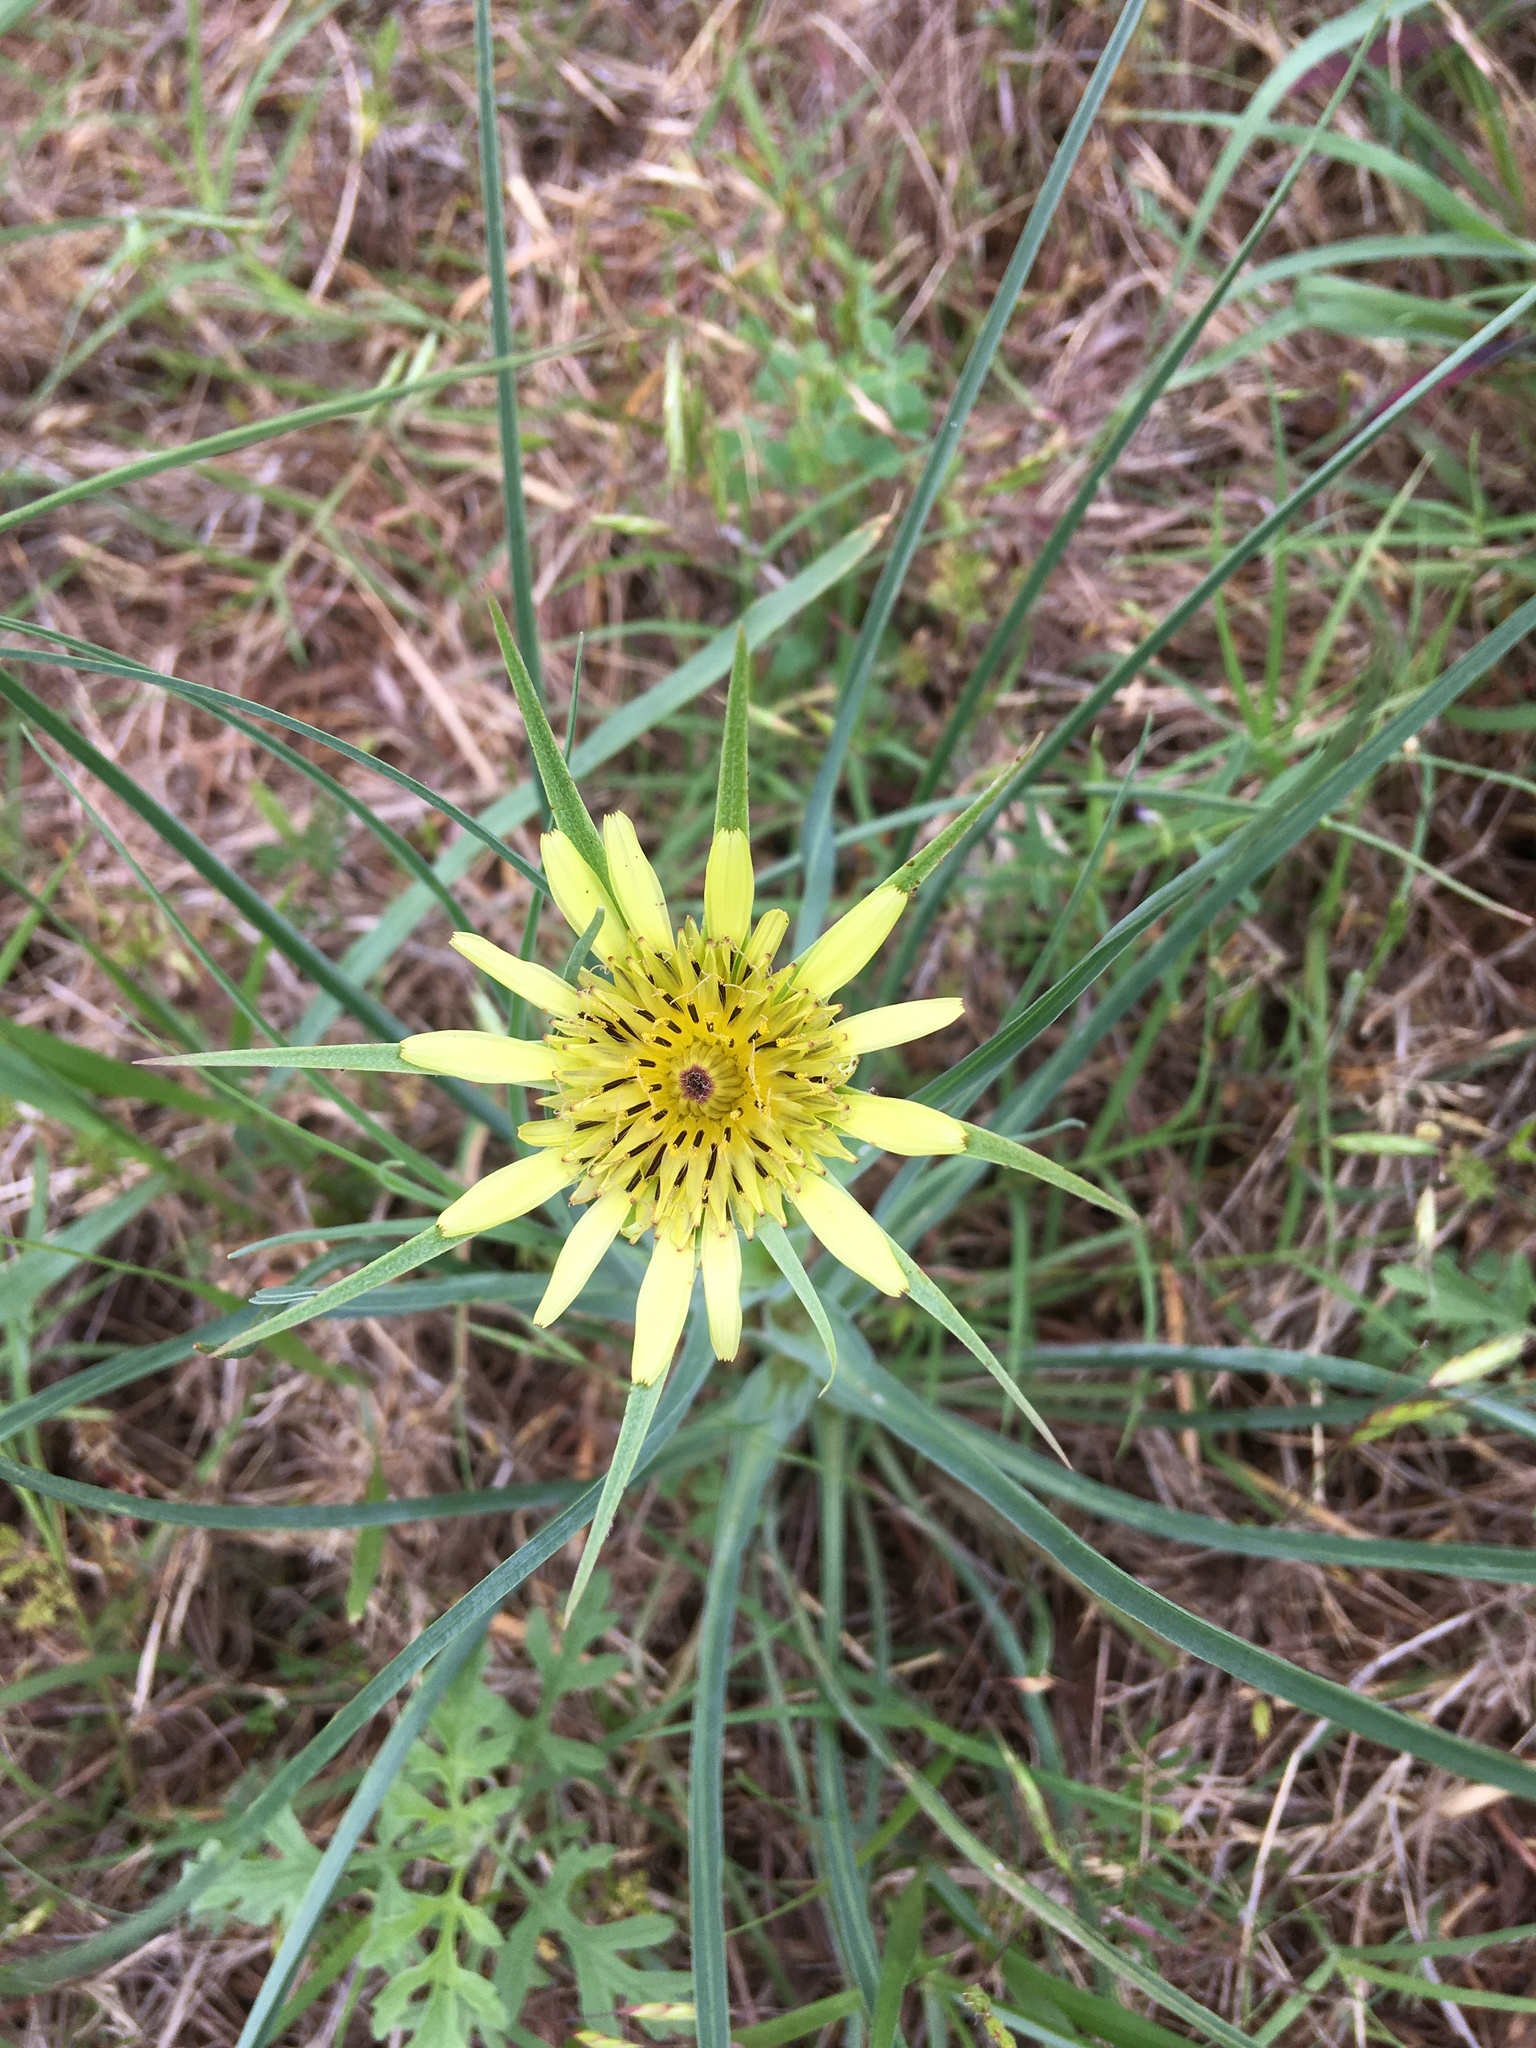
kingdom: Plantae
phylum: Tracheophyta
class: Magnoliopsida
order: Asterales
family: Asteraceae
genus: Tragopogon
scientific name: Tragopogon dubius
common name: Yellow salsify
